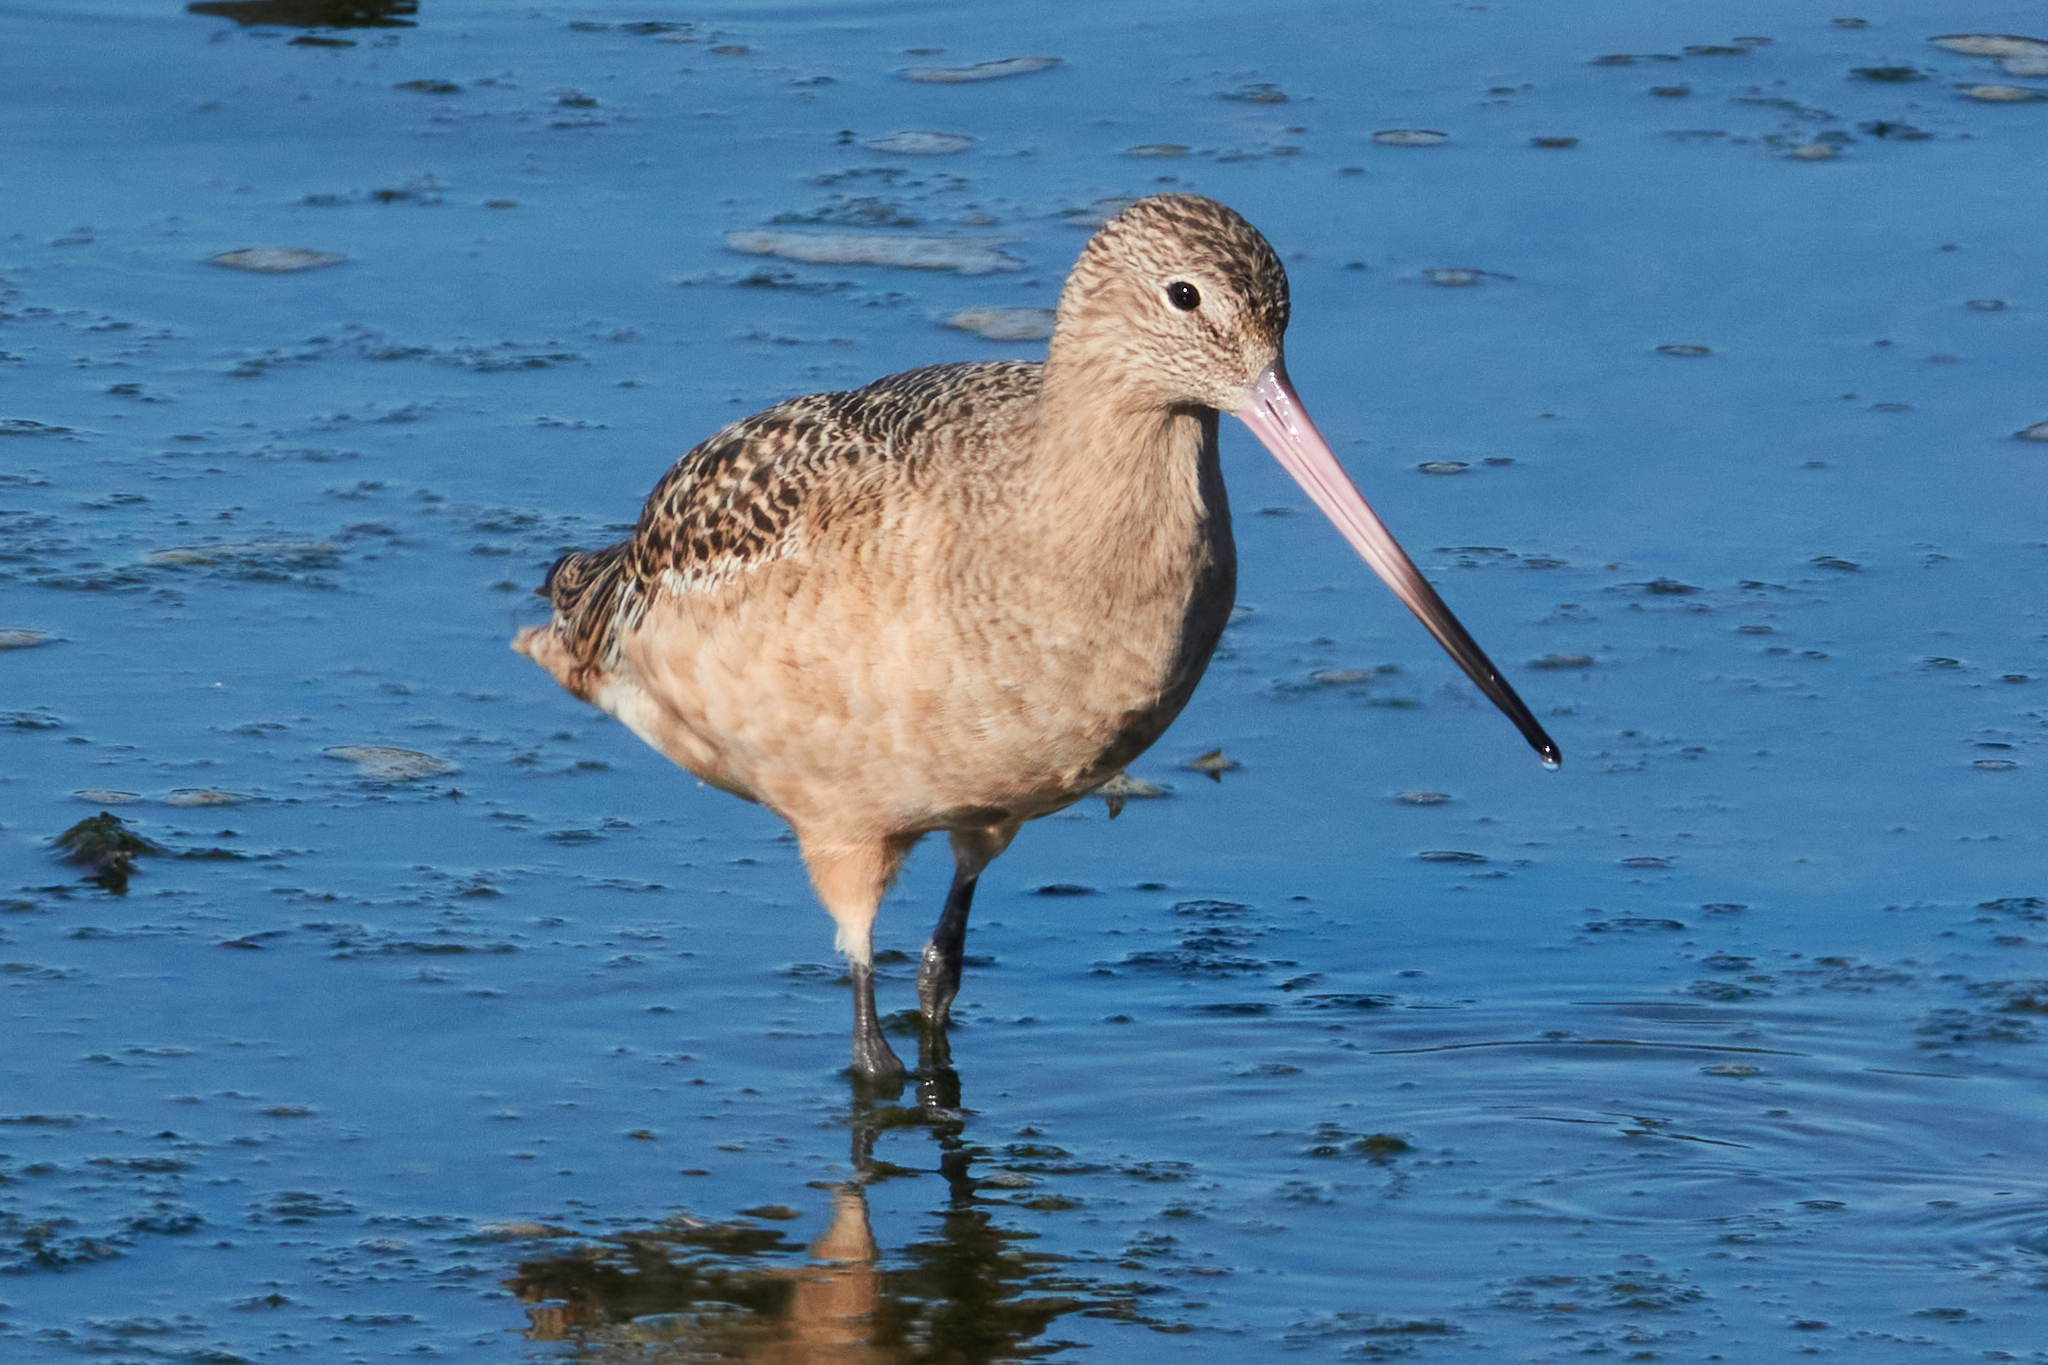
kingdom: Animalia
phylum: Chordata
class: Aves
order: Charadriiformes
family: Scolopacidae
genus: Limosa
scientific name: Limosa fedoa
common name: Marbled godwit
